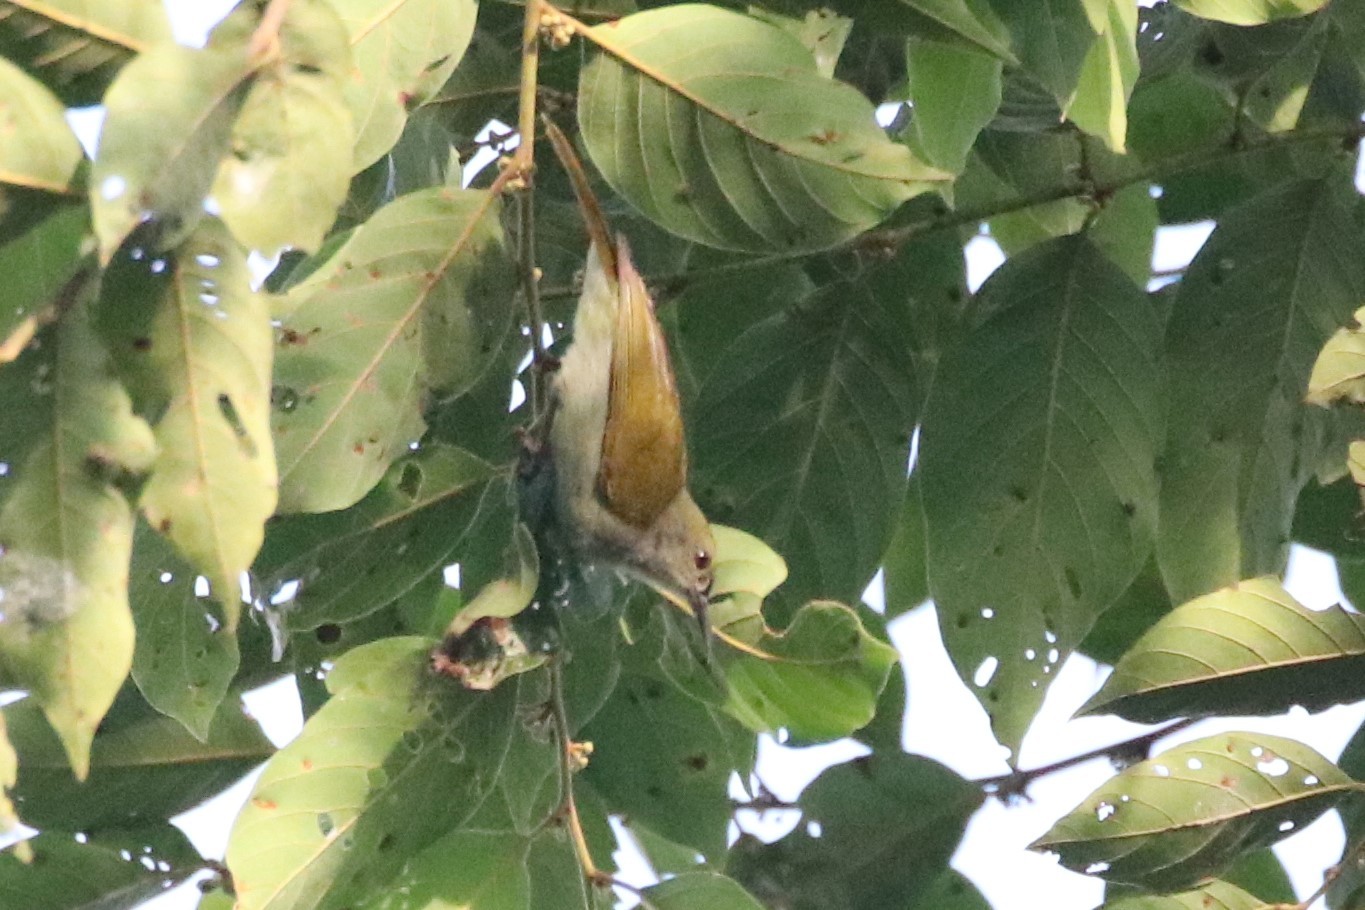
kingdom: Animalia
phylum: Chordata
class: Aves
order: Passeriformes
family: Nectariniidae
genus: Anthreptes
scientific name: Anthreptes simplex
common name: Plain sunbird
